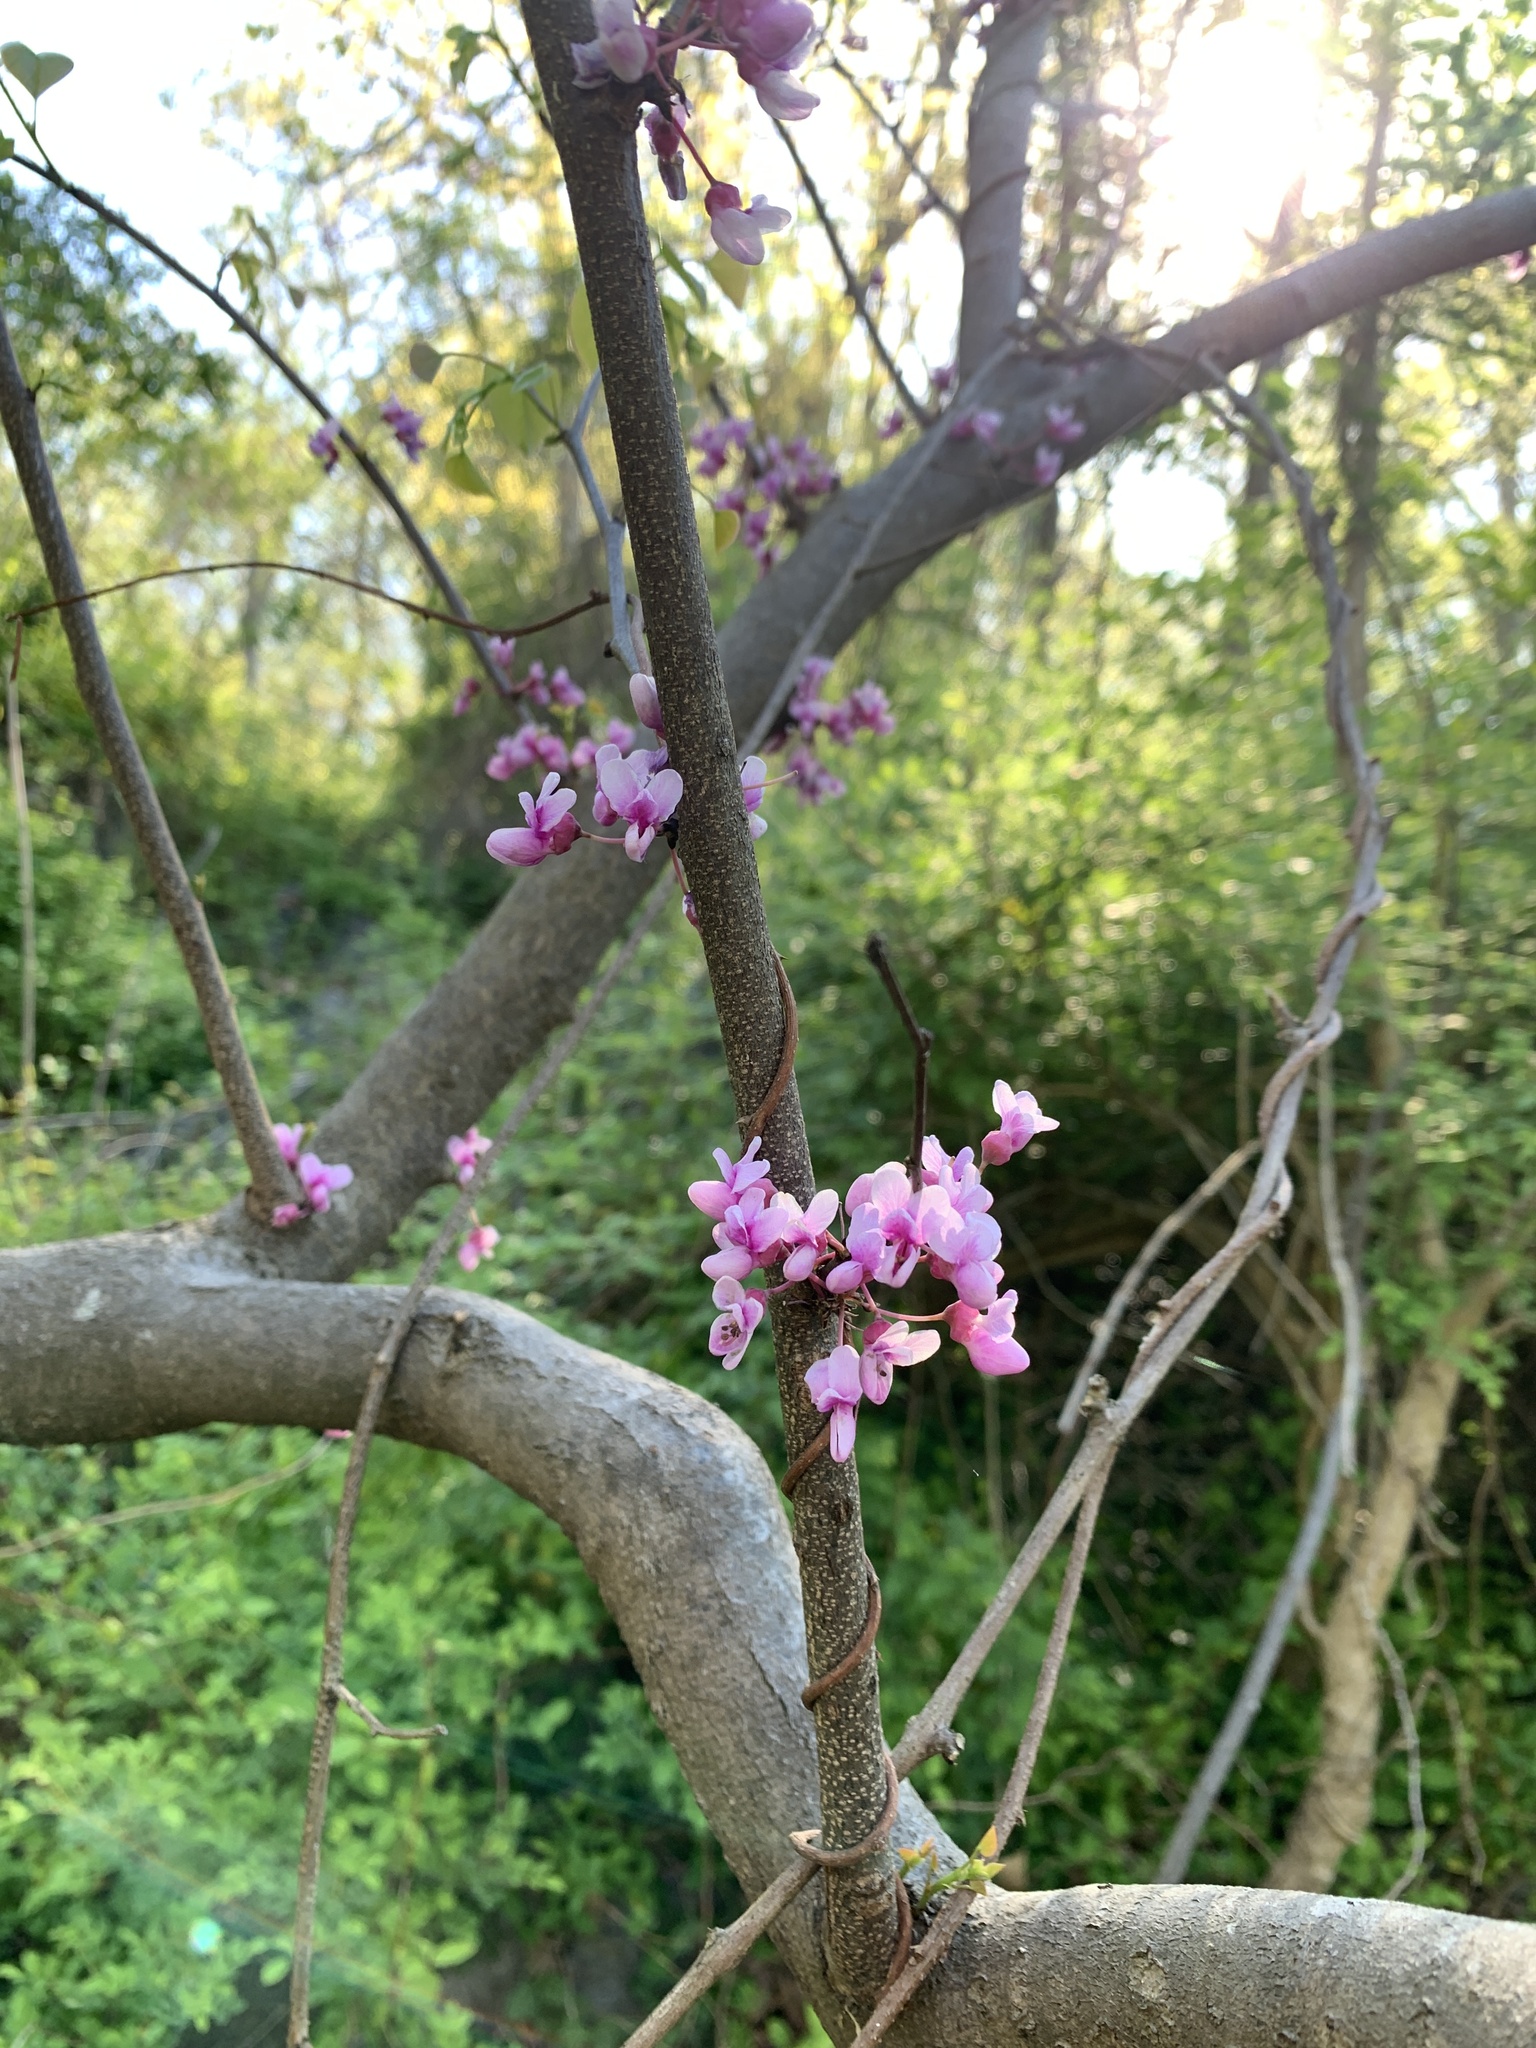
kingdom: Plantae
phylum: Tracheophyta
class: Magnoliopsida
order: Fabales
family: Fabaceae
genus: Cercis
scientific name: Cercis canadensis
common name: Eastern redbud
